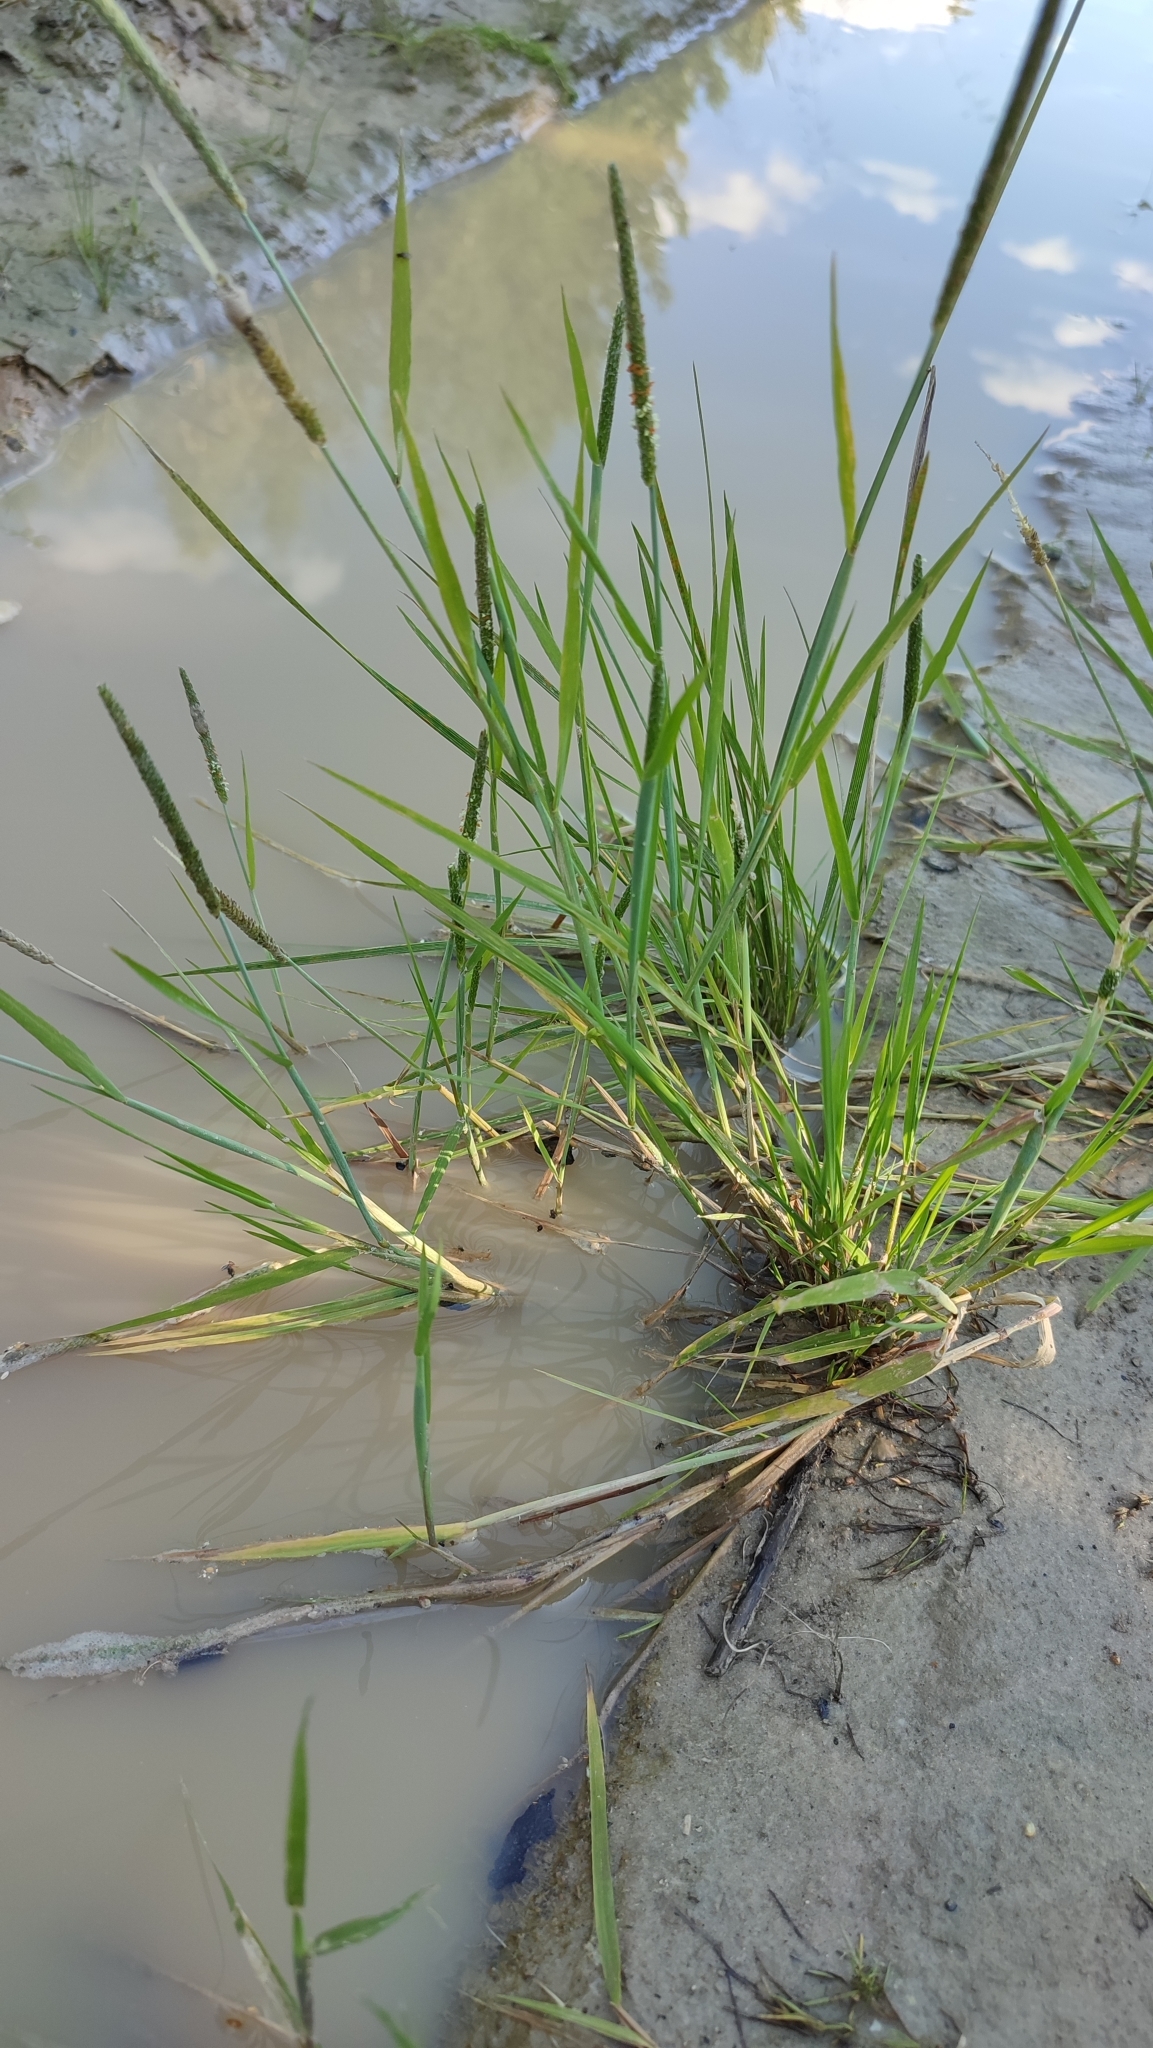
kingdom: Plantae
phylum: Tracheophyta
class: Liliopsida
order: Poales
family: Poaceae
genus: Alopecurus
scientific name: Alopecurus aequalis
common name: Orange foxtail
